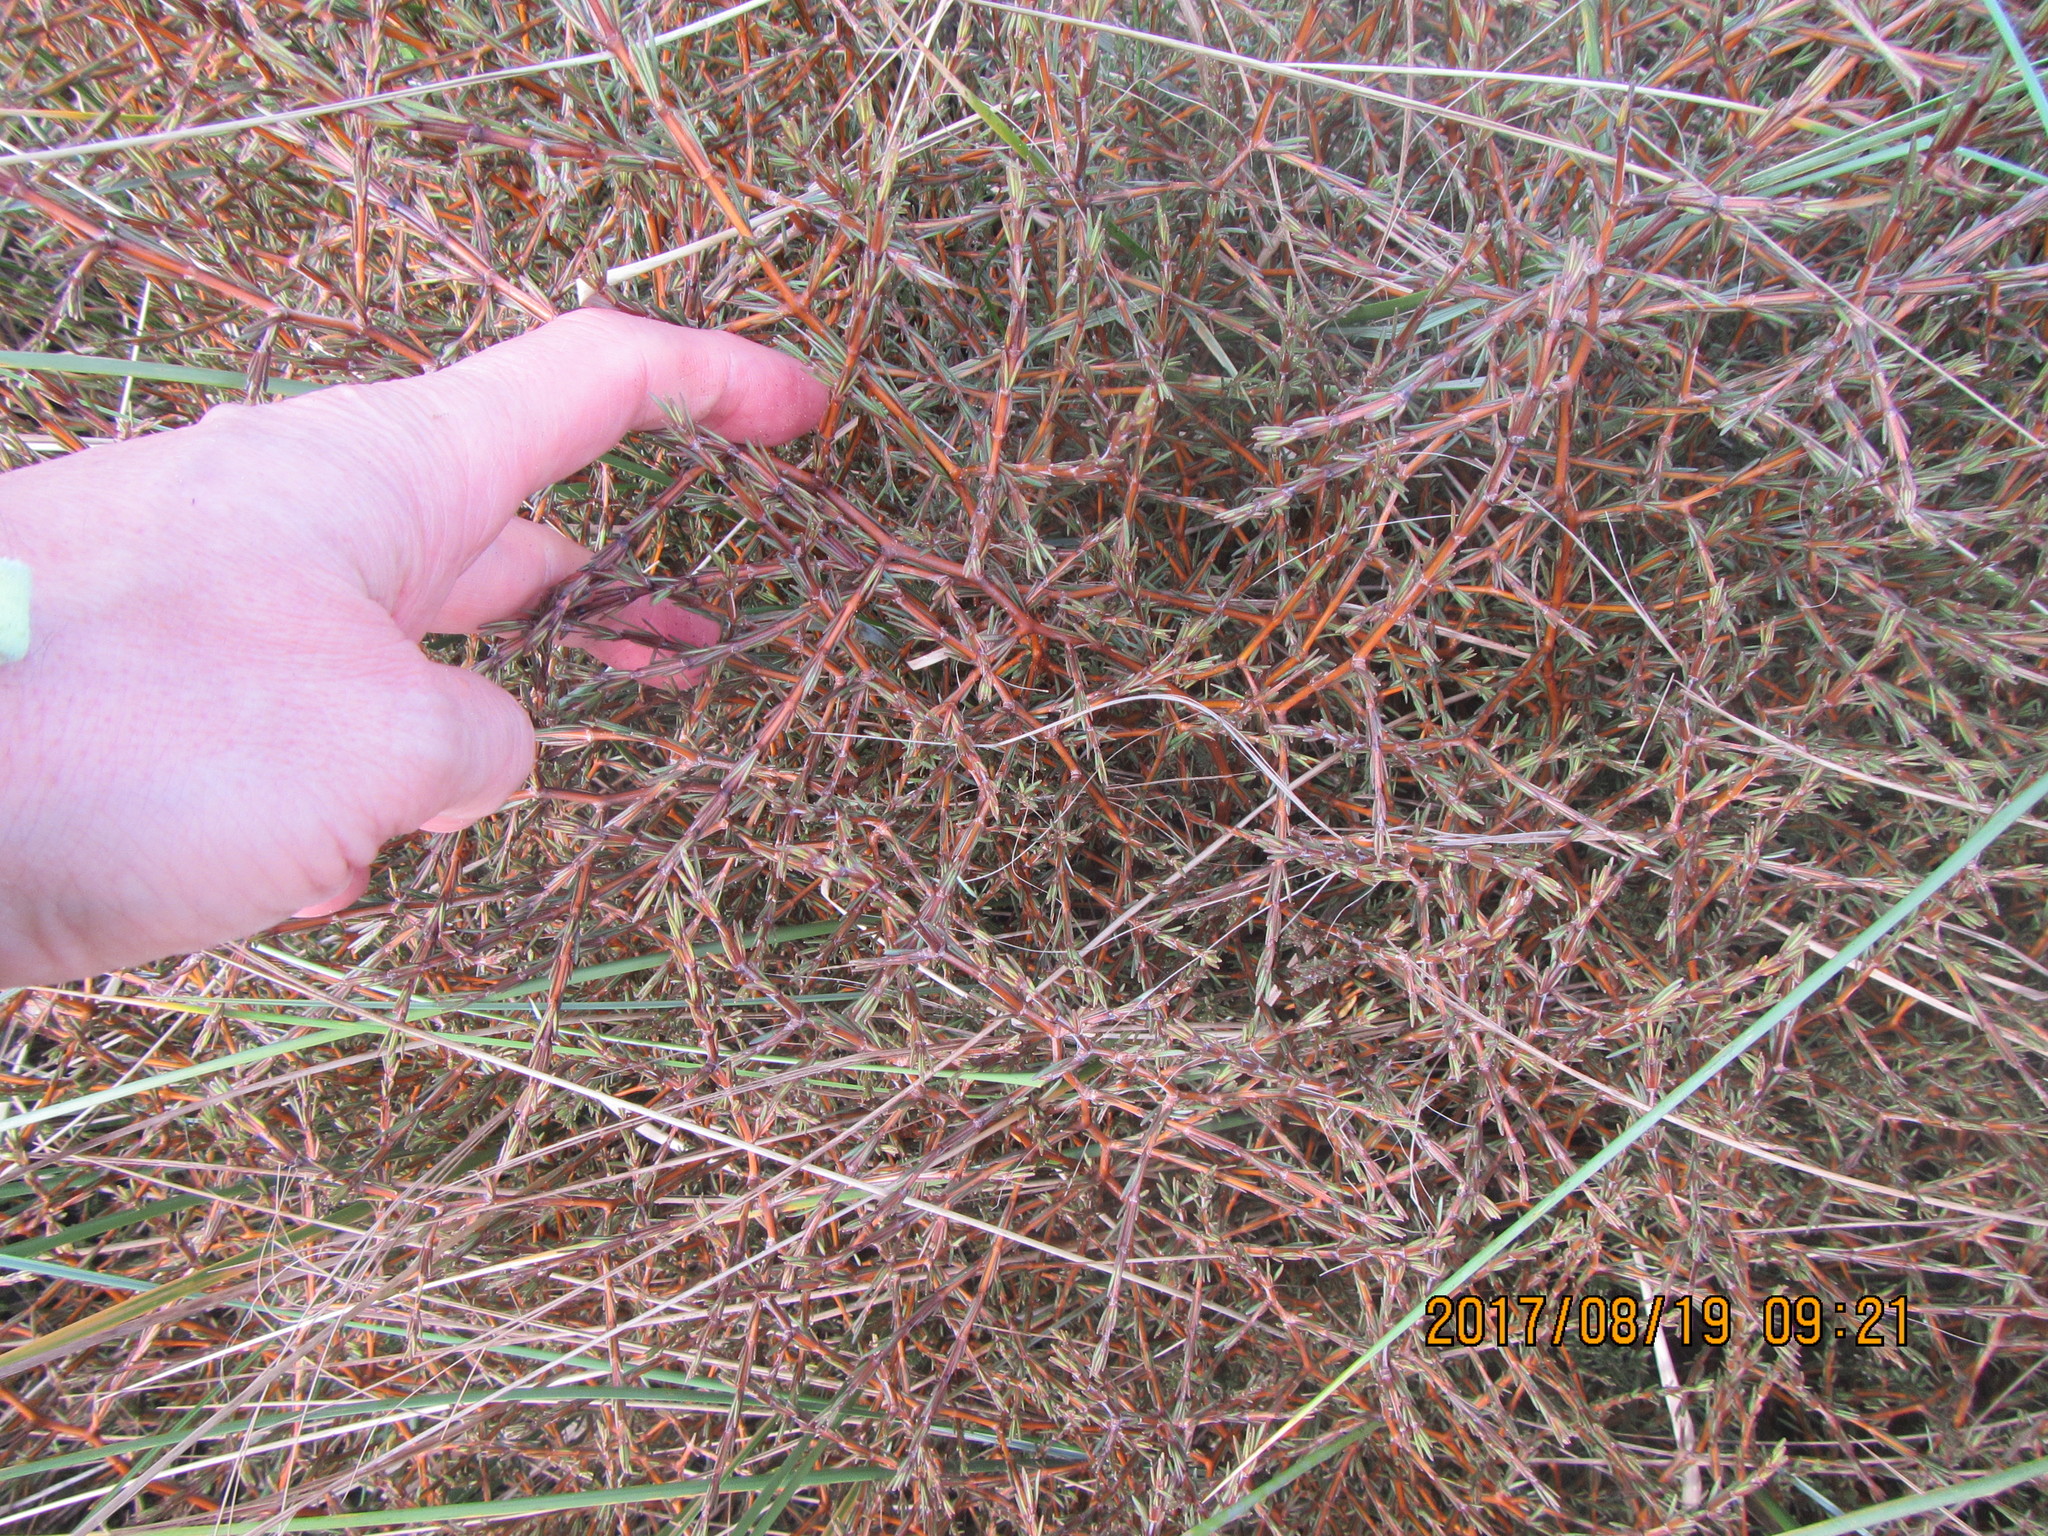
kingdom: Plantae
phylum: Tracheophyta
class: Magnoliopsida
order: Gentianales
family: Rubiaceae
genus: Coprosma
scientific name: Coprosma acerosa
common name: Sand coprosma
